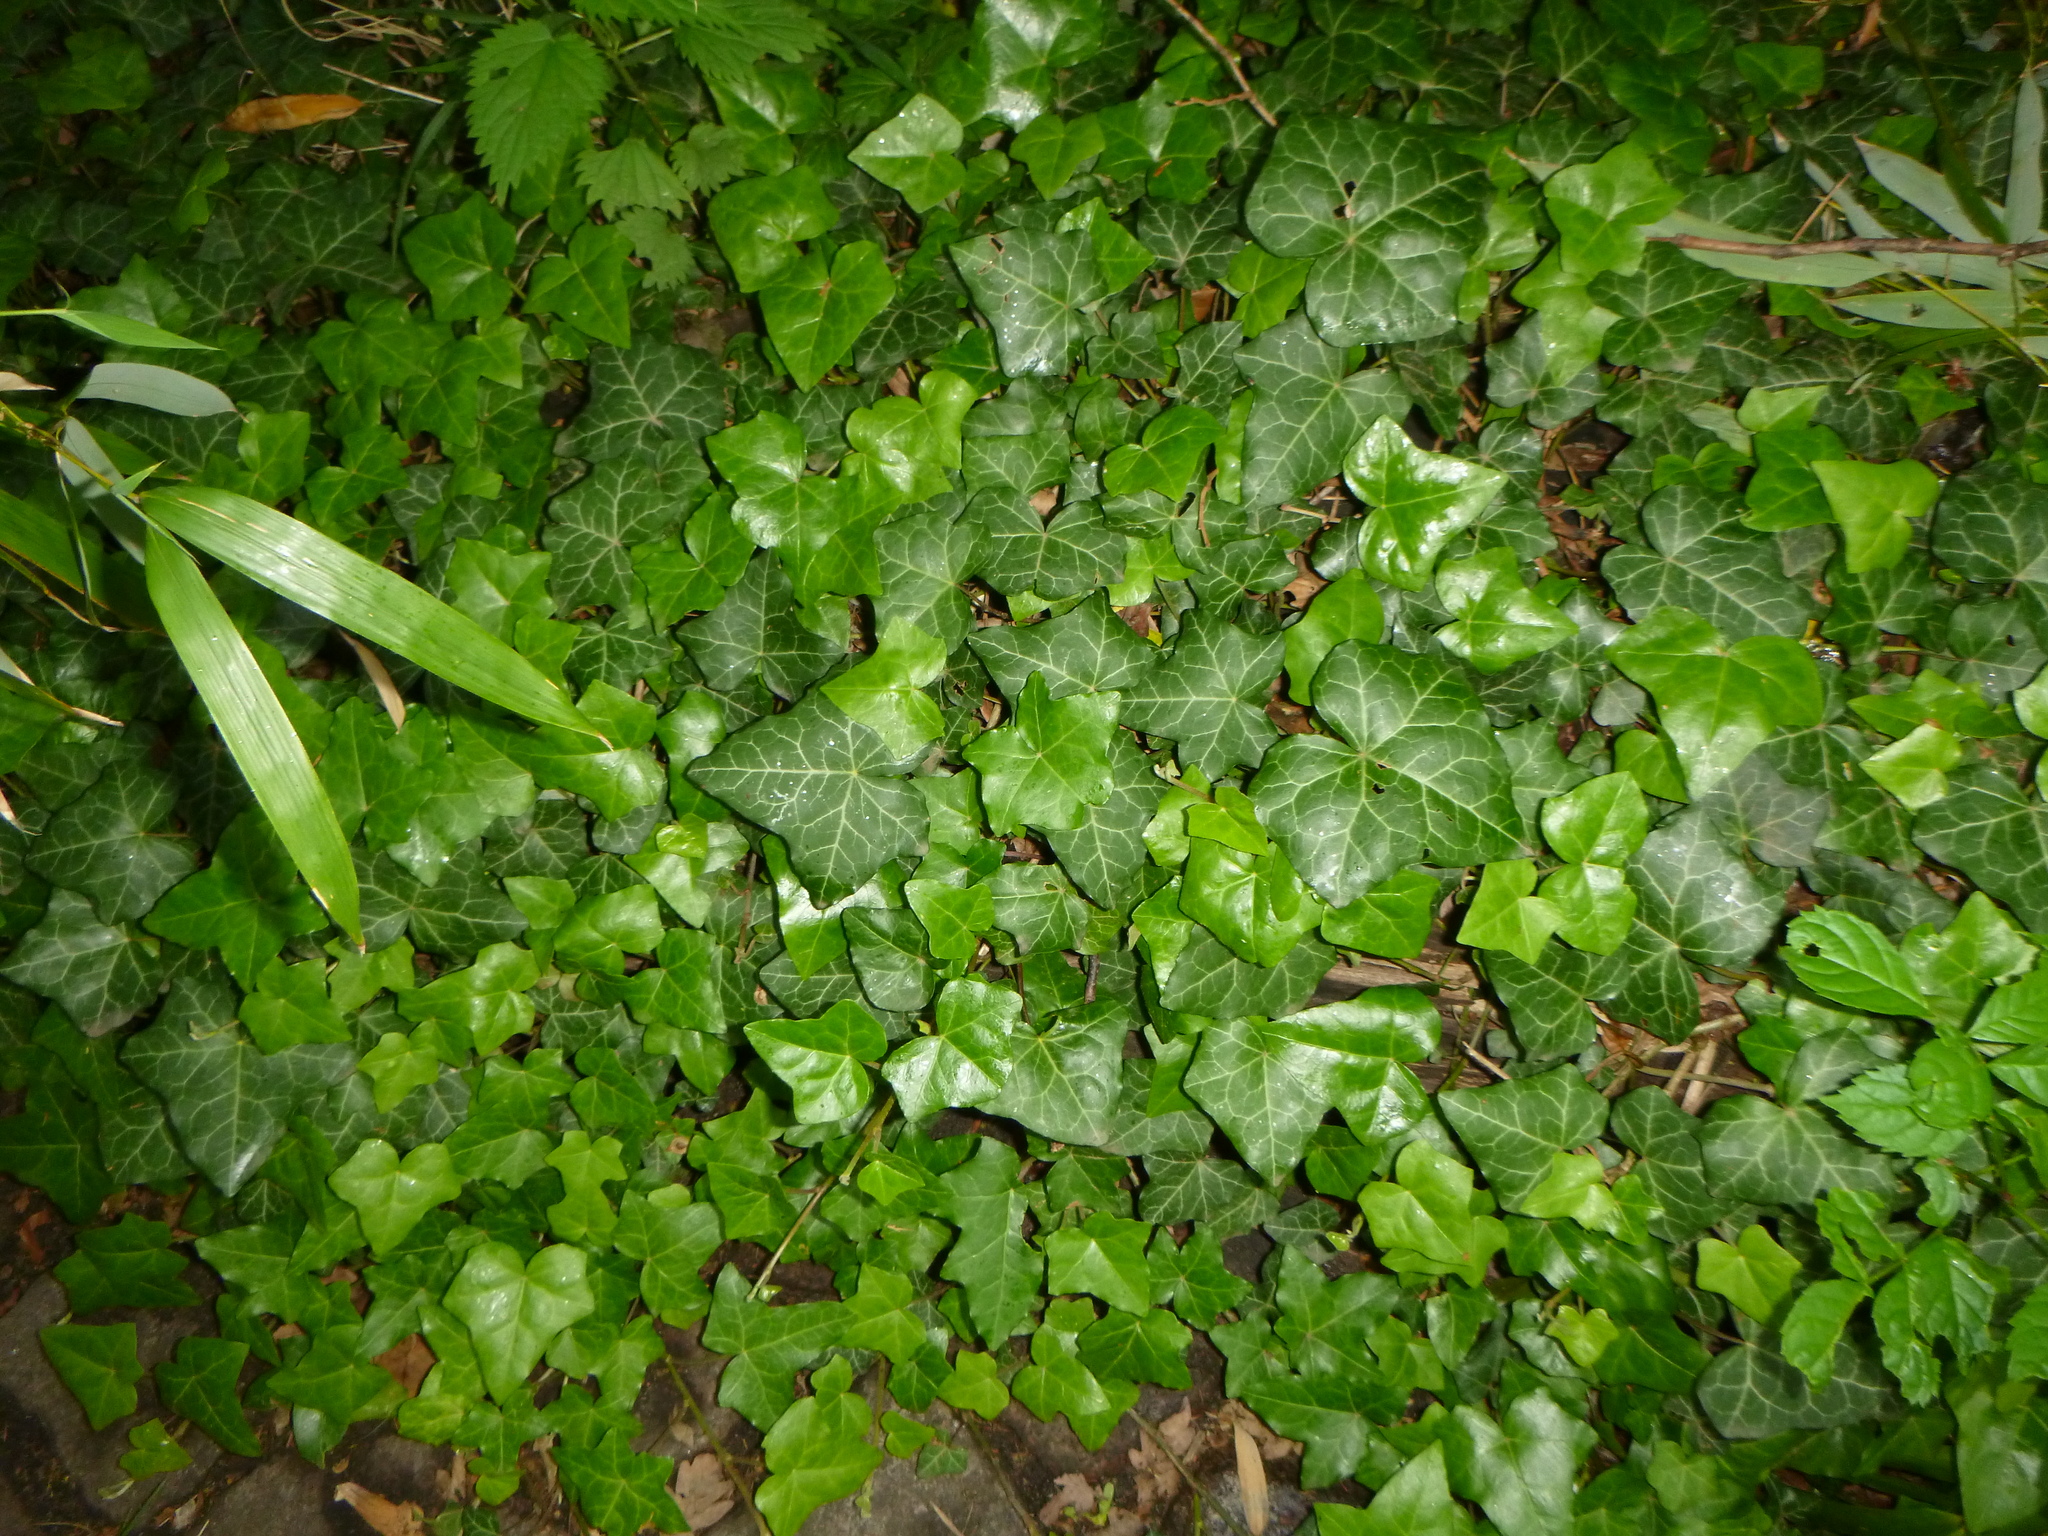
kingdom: Plantae
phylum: Tracheophyta
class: Magnoliopsida
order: Apiales
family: Araliaceae
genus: Hedera
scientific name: Hedera helix
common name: Ivy
